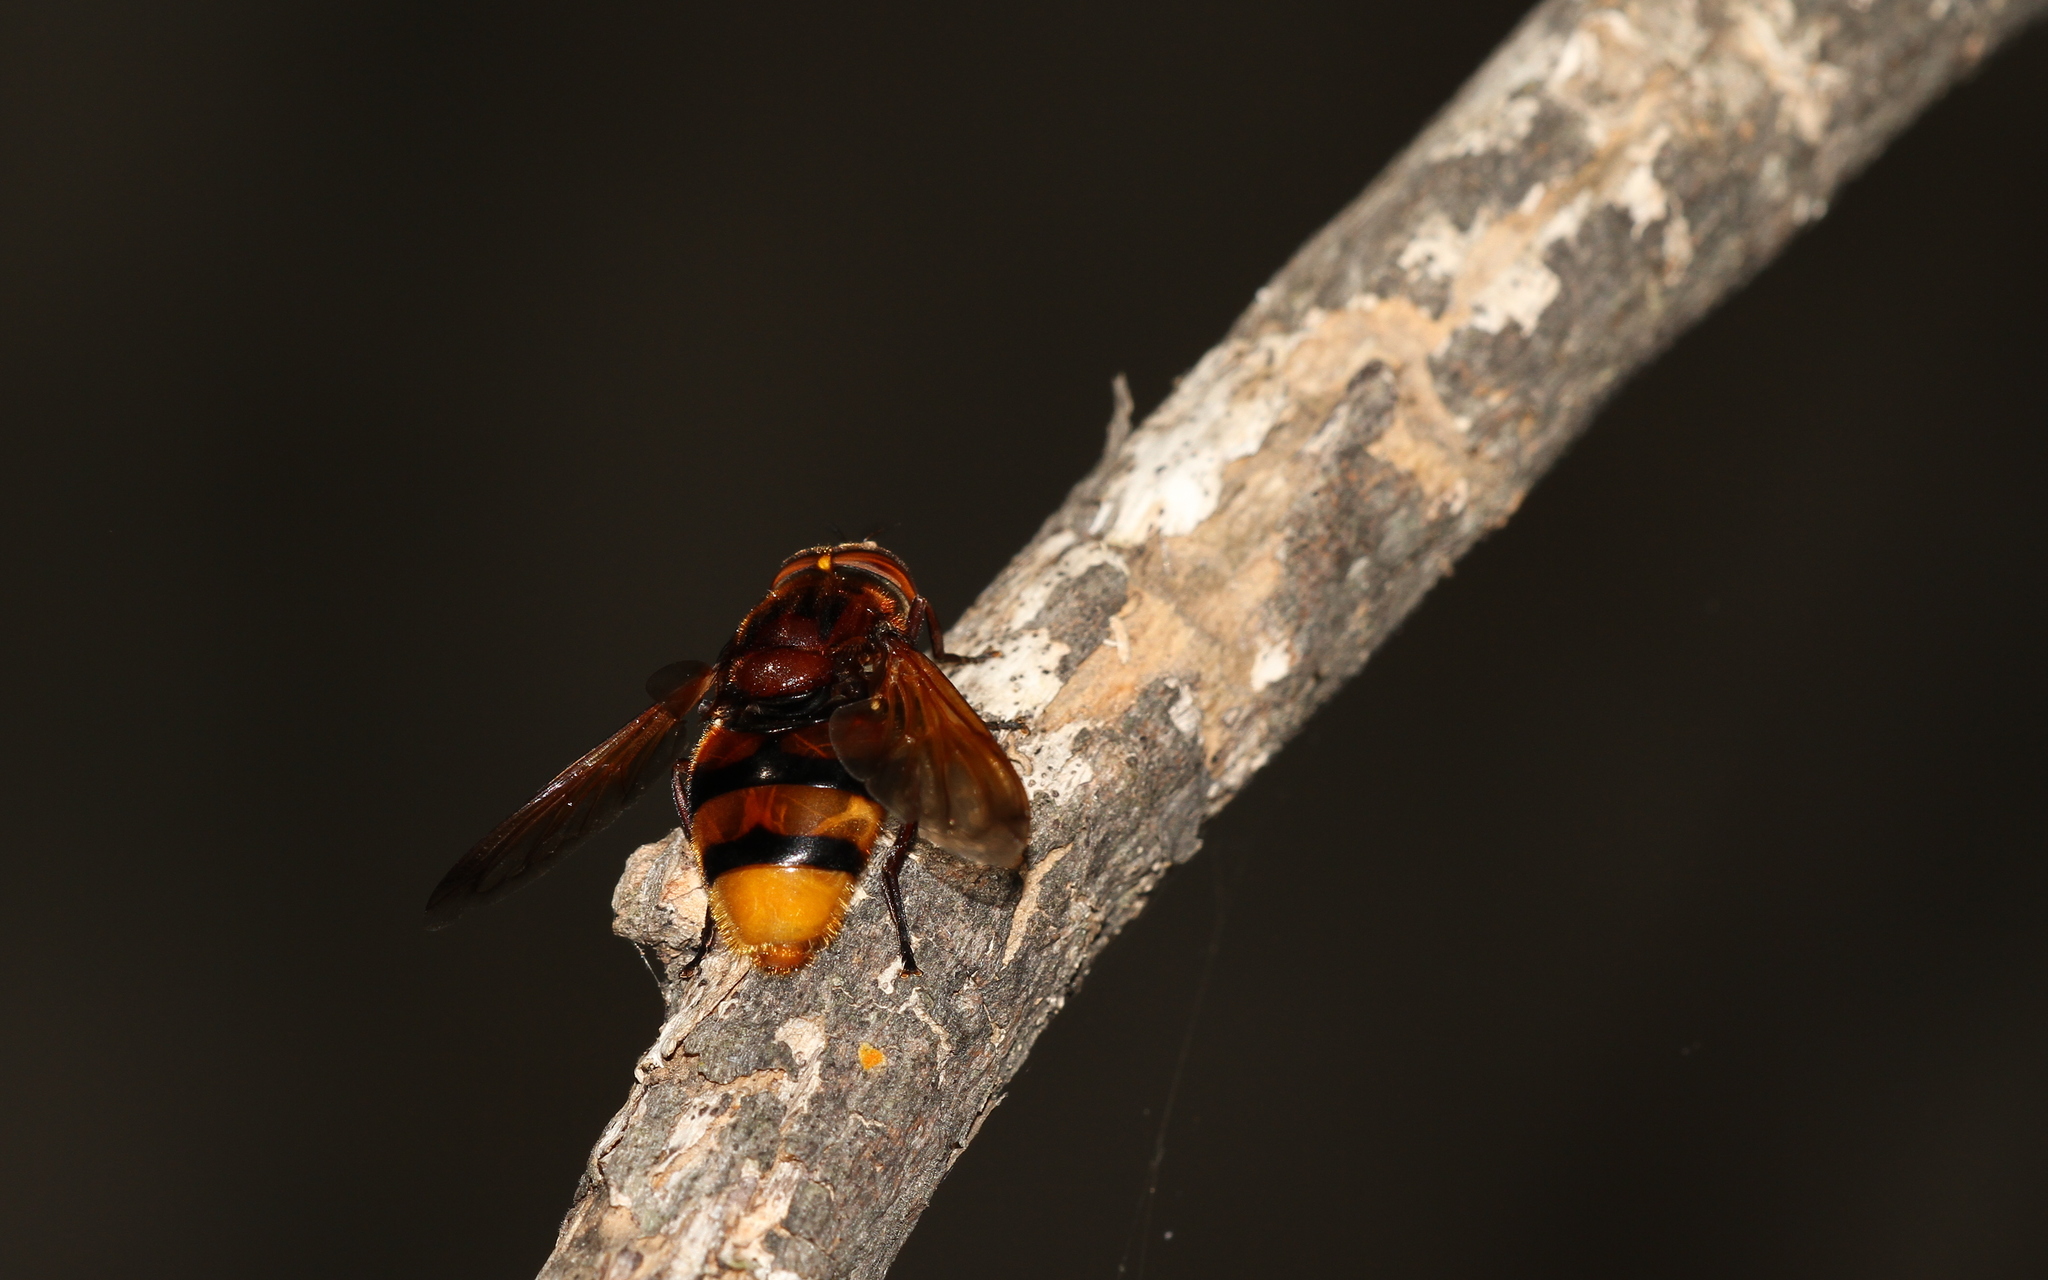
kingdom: Animalia
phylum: Arthropoda
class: Insecta
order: Diptera
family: Syrphidae
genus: Volucella
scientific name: Volucella zonaria
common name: Hornet hoverfly
